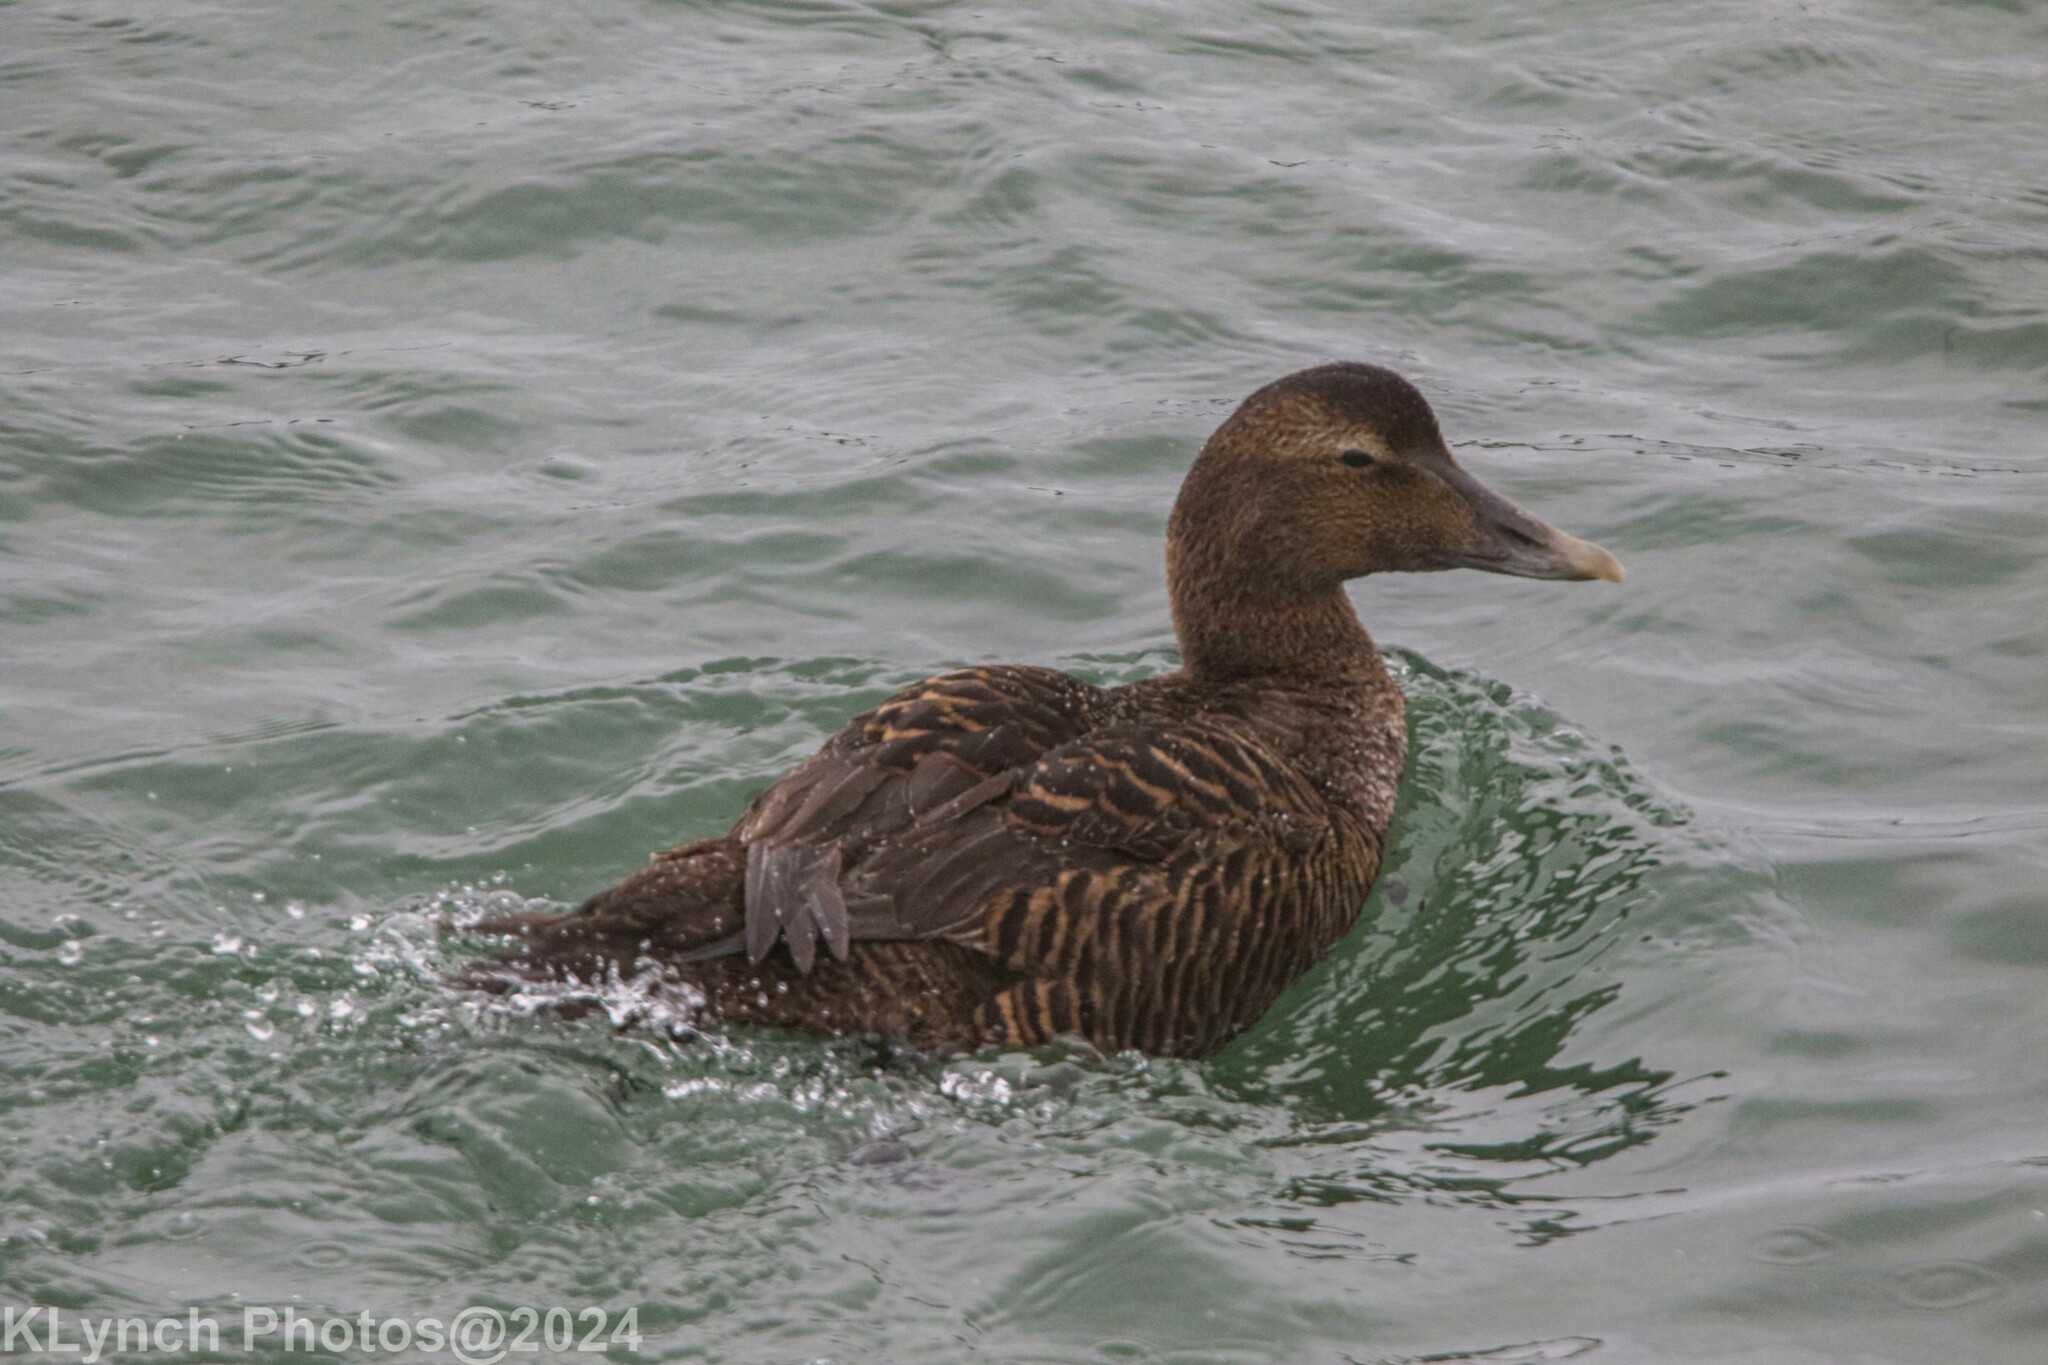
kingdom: Animalia
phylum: Chordata
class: Aves
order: Anseriformes
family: Anatidae
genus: Somateria
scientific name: Somateria mollissima
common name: Common eider
